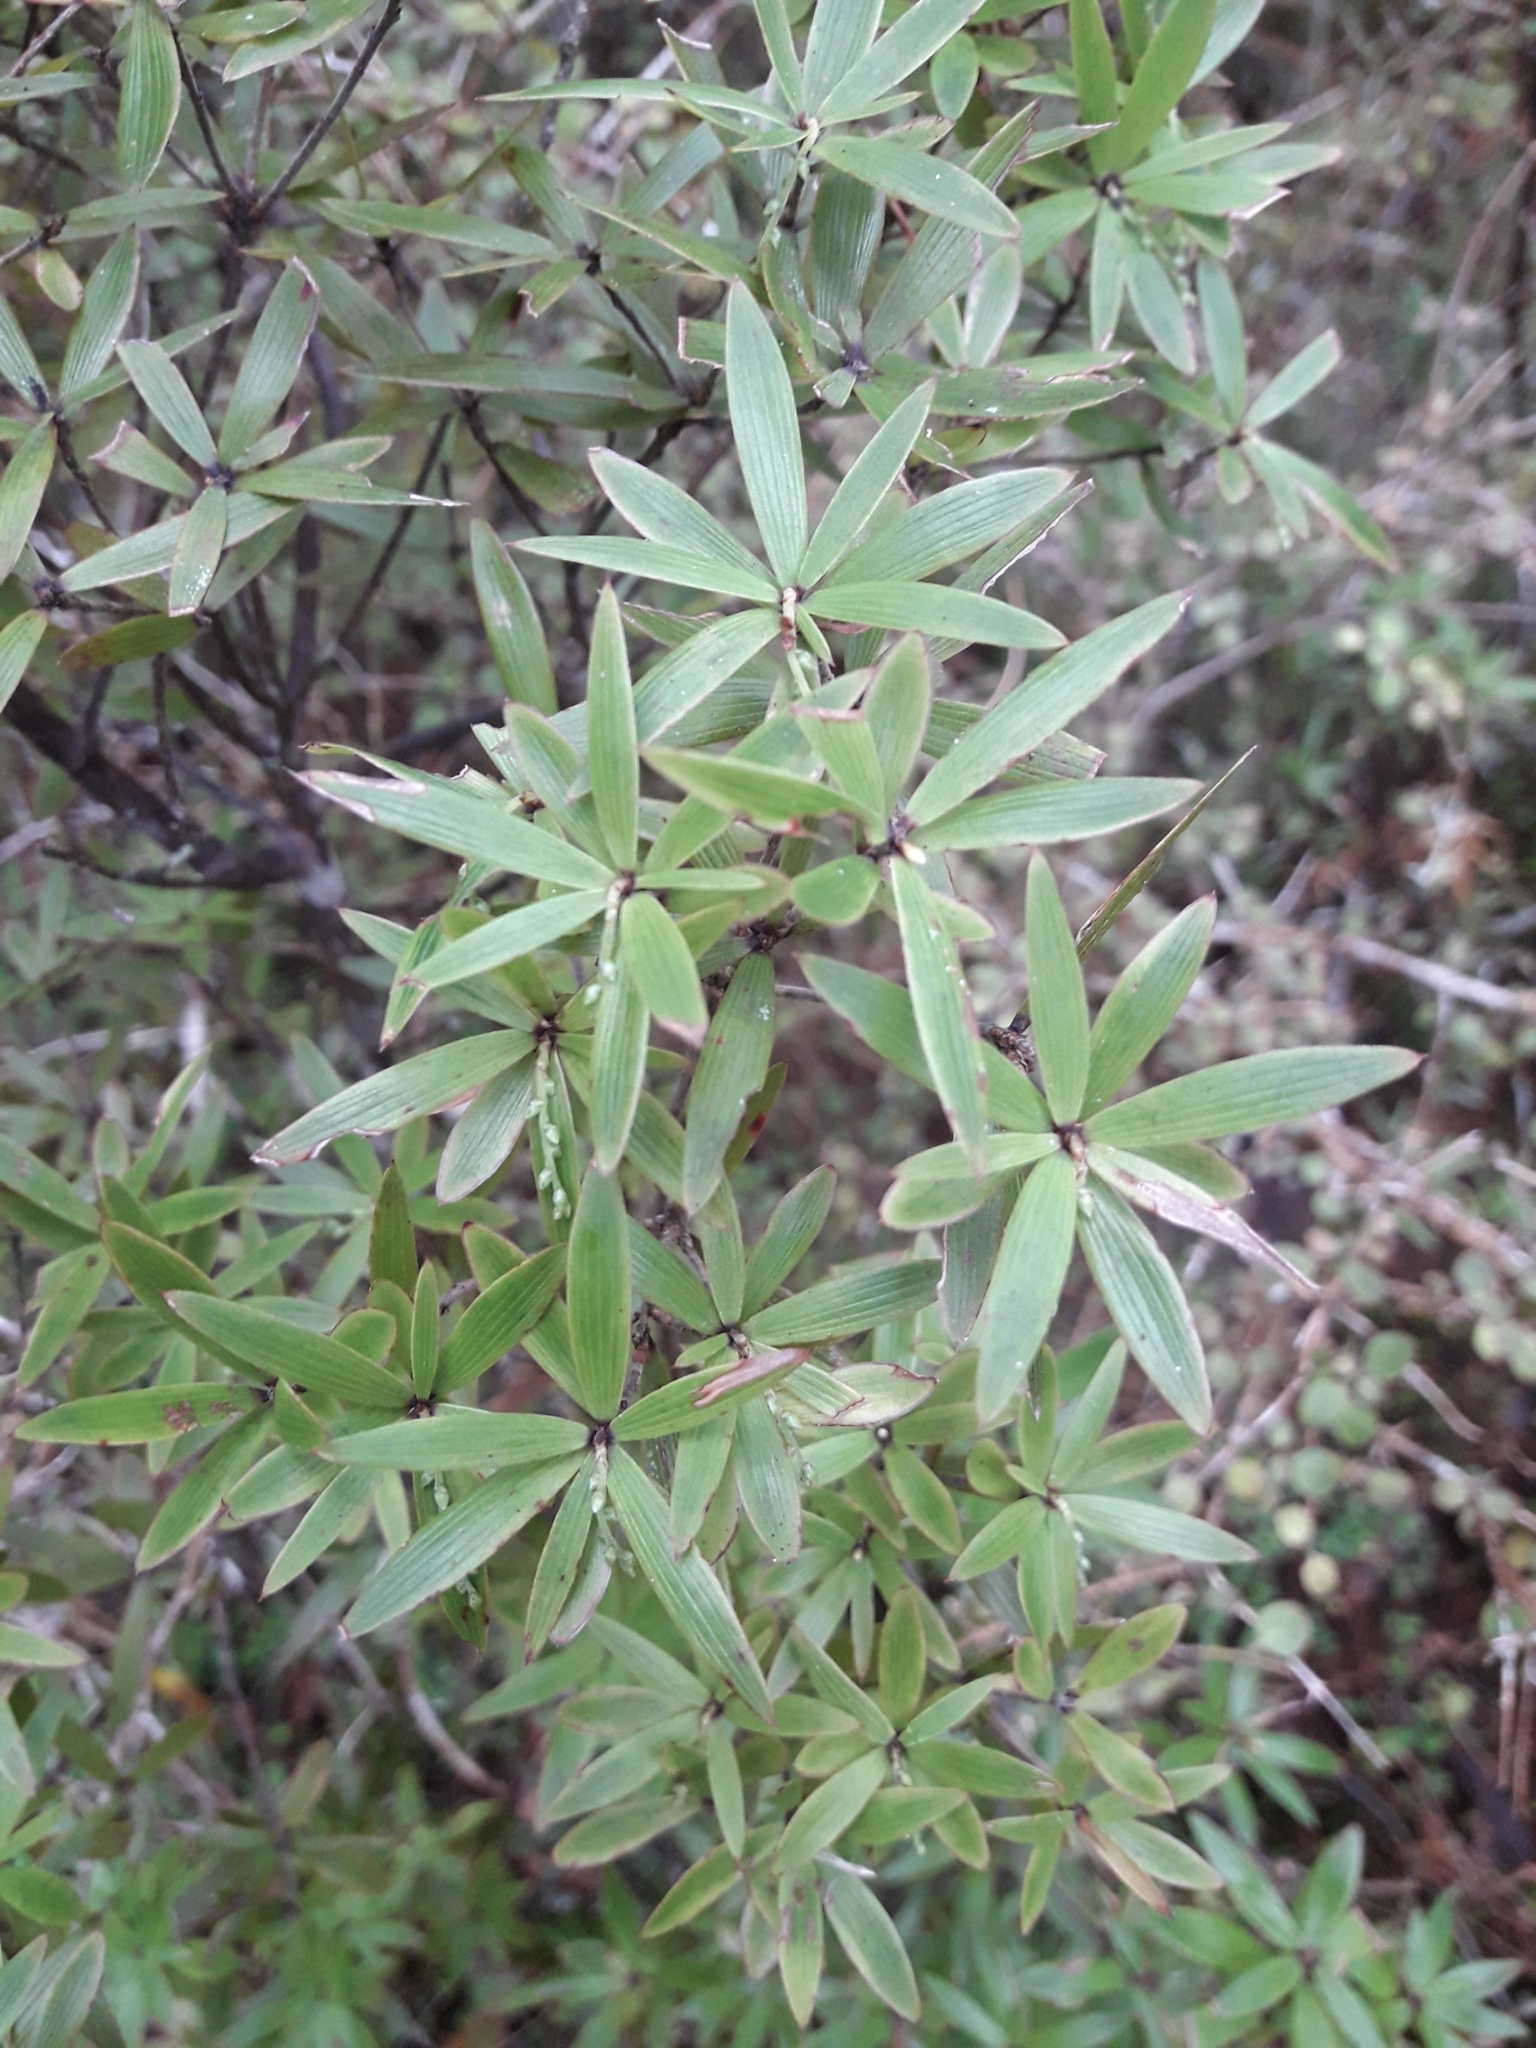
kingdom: Plantae
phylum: Tracheophyta
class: Magnoliopsida
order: Ericales
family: Ericaceae
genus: Leucopogon
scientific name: Leucopogon fasciculatus
